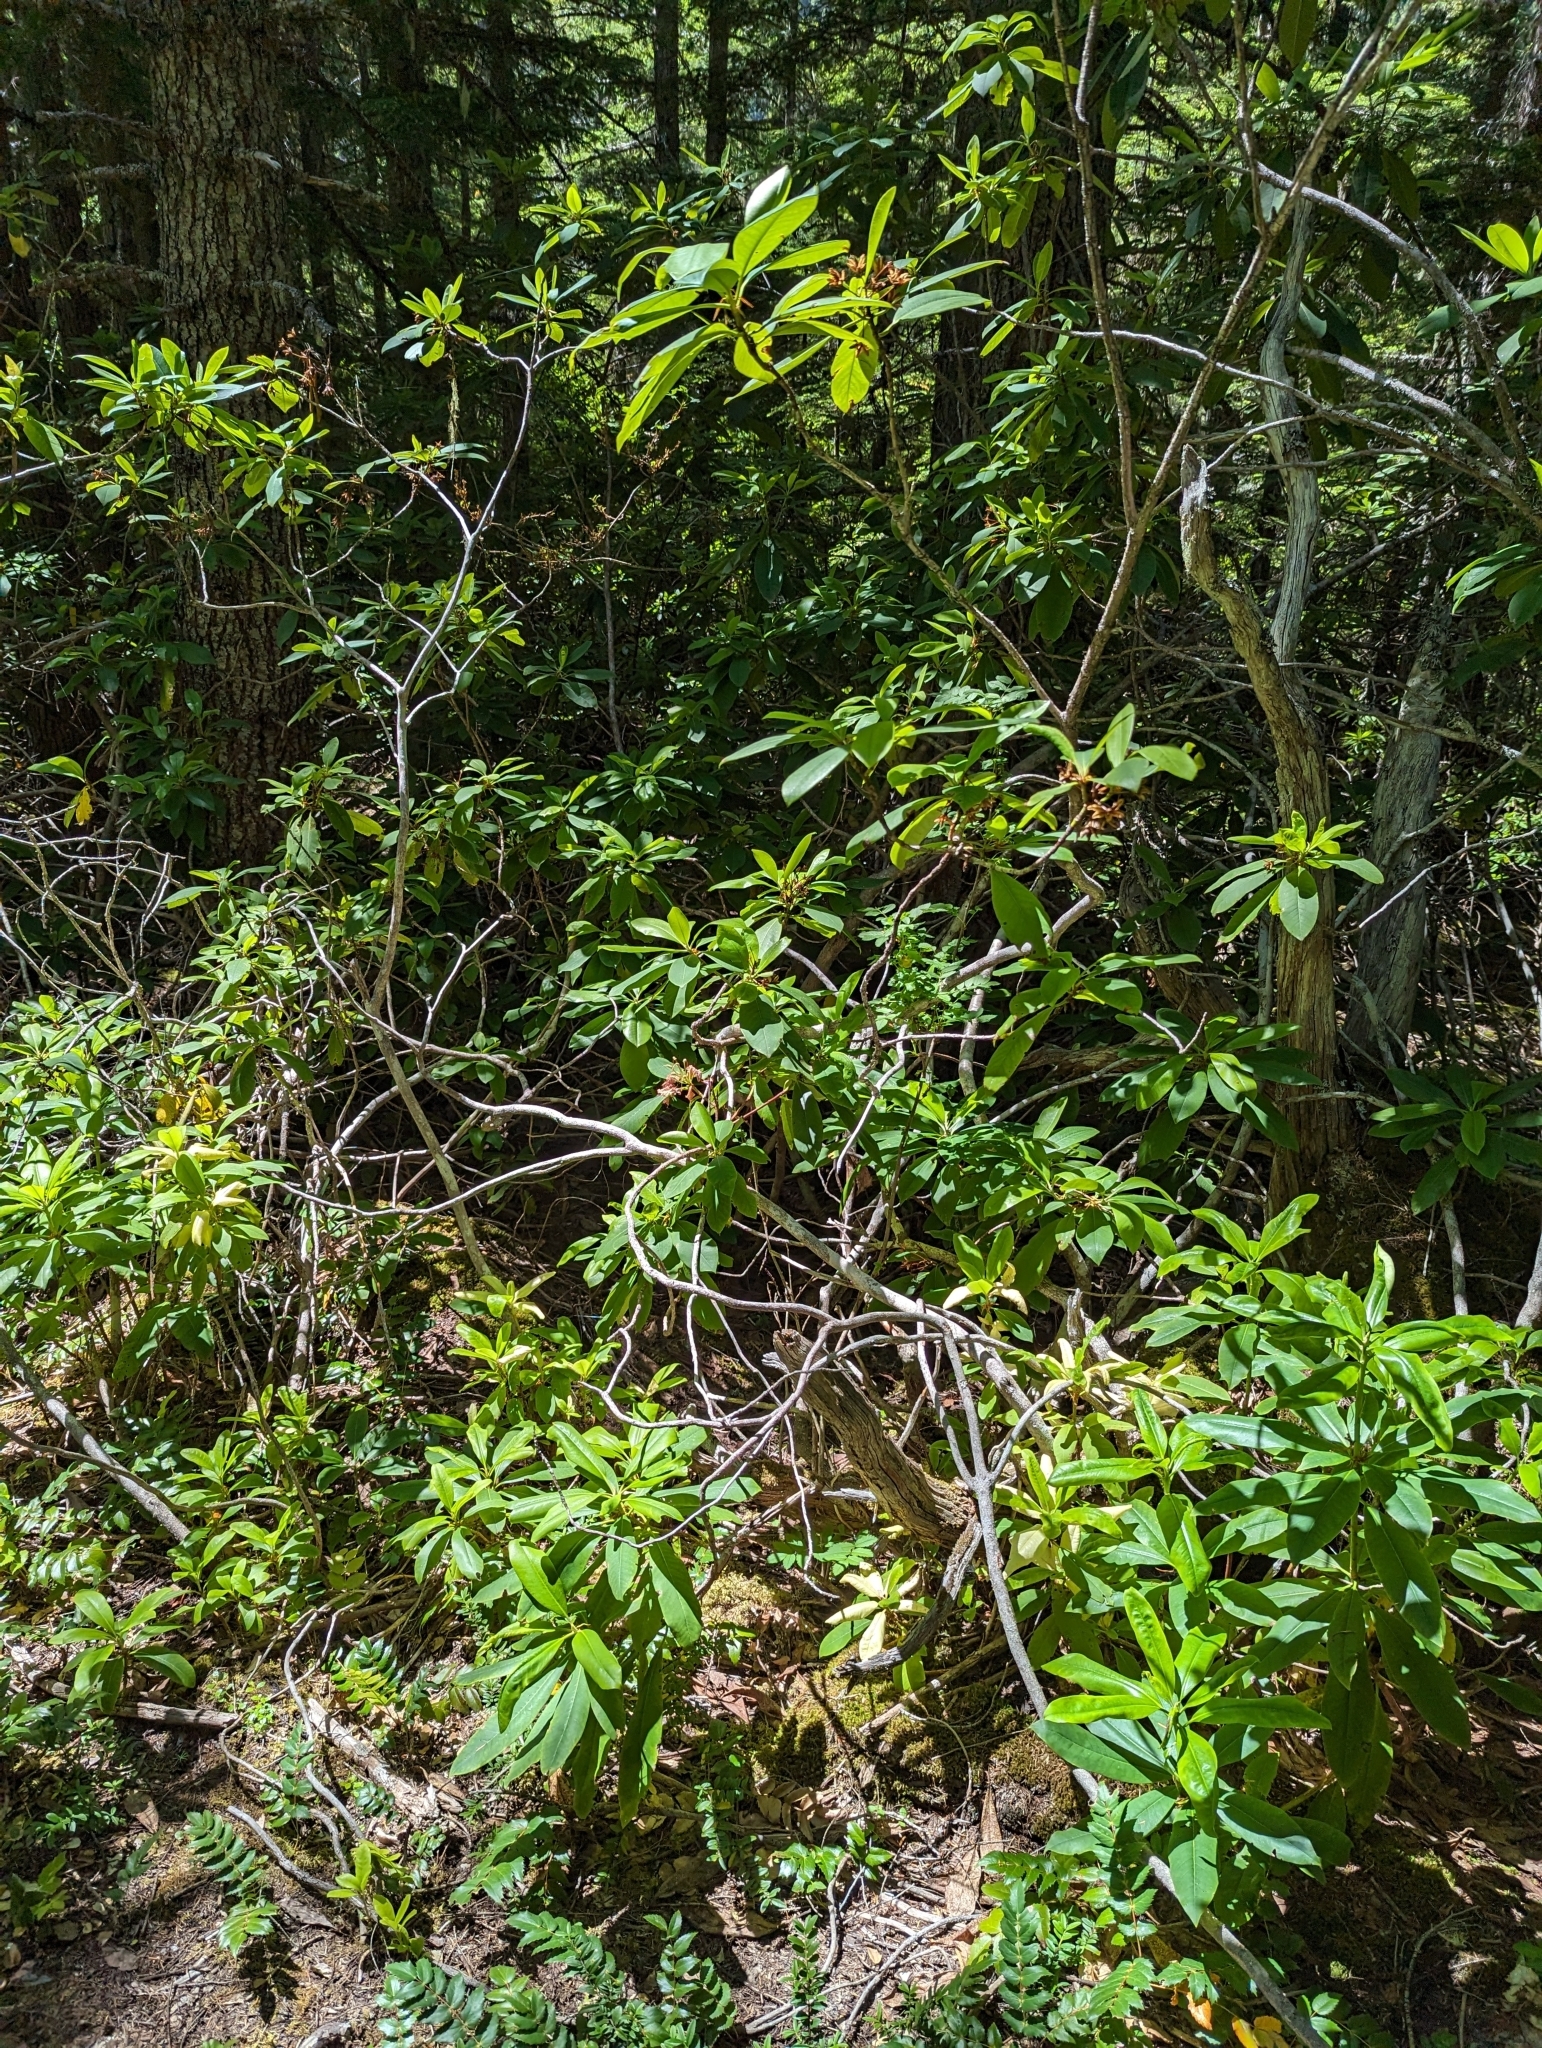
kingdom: Plantae
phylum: Tracheophyta
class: Magnoliopsida
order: Ericales
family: Ericaceae
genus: Rhododendron
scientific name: Rhododendron macrophyllum
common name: California rose bay
